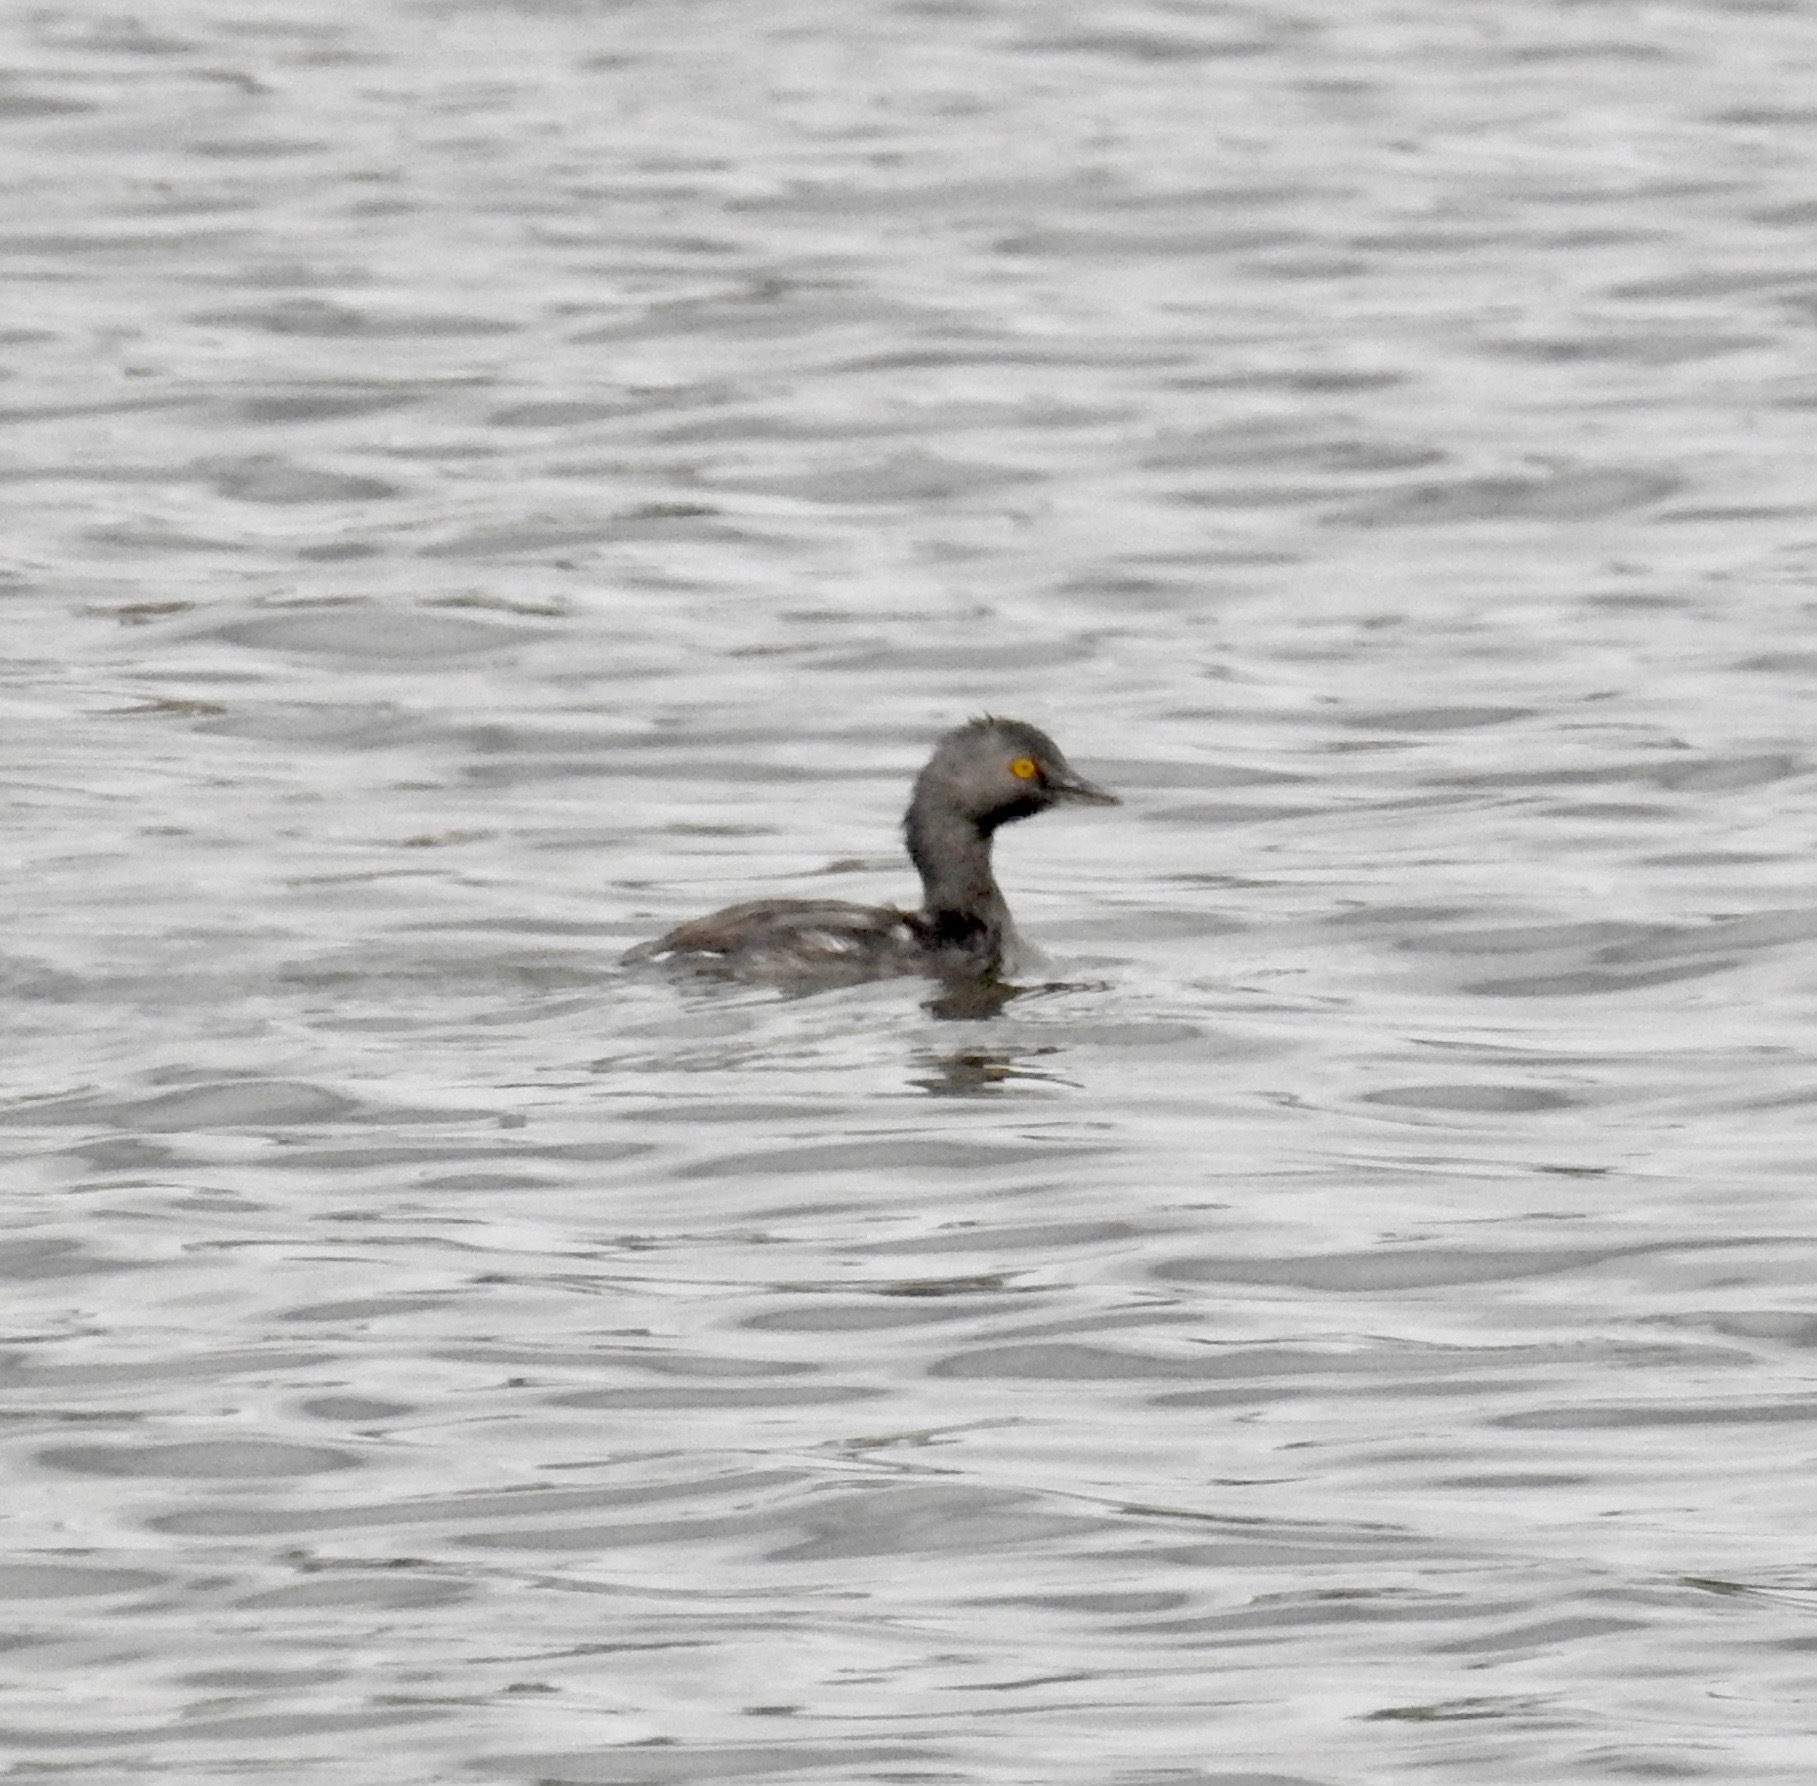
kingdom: Animalia
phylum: Chordata
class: Aves
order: Podicipediformes
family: Podicipedidae
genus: Tachybaptus
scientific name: Tachybaptus dominicus
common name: Least grebe
